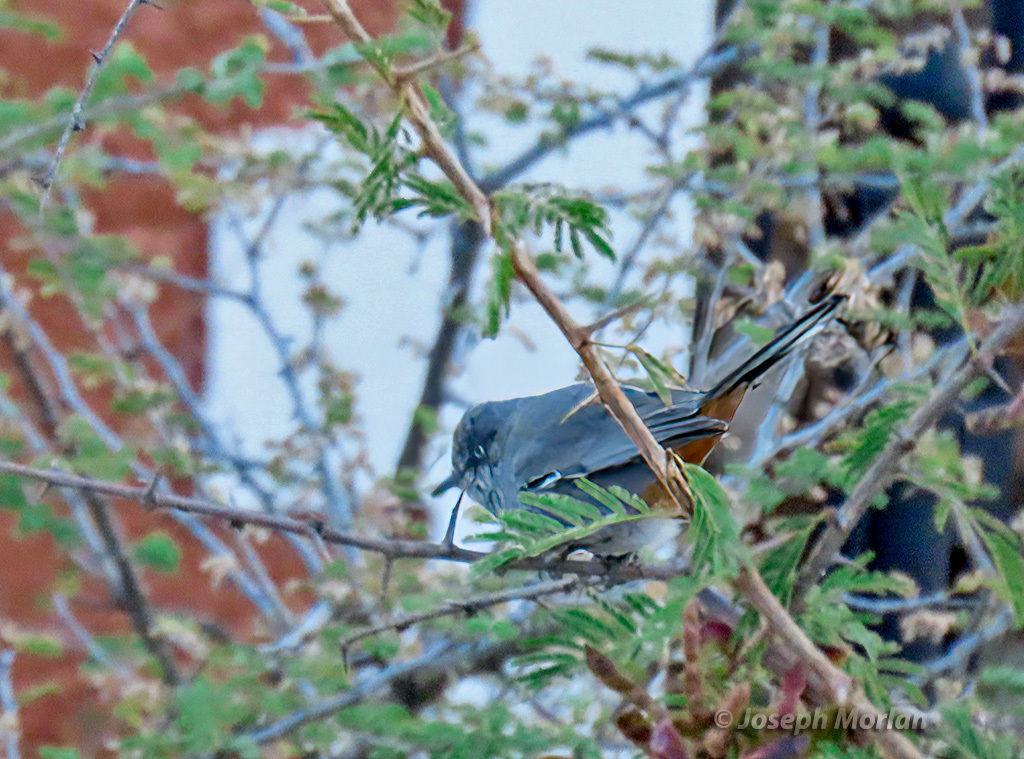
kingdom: Animalia
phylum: Chordata
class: Aves
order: Passeriformes
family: Sylviidae
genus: Curruca
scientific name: Curruca subcoerulea
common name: Chestnut-vented warbler
